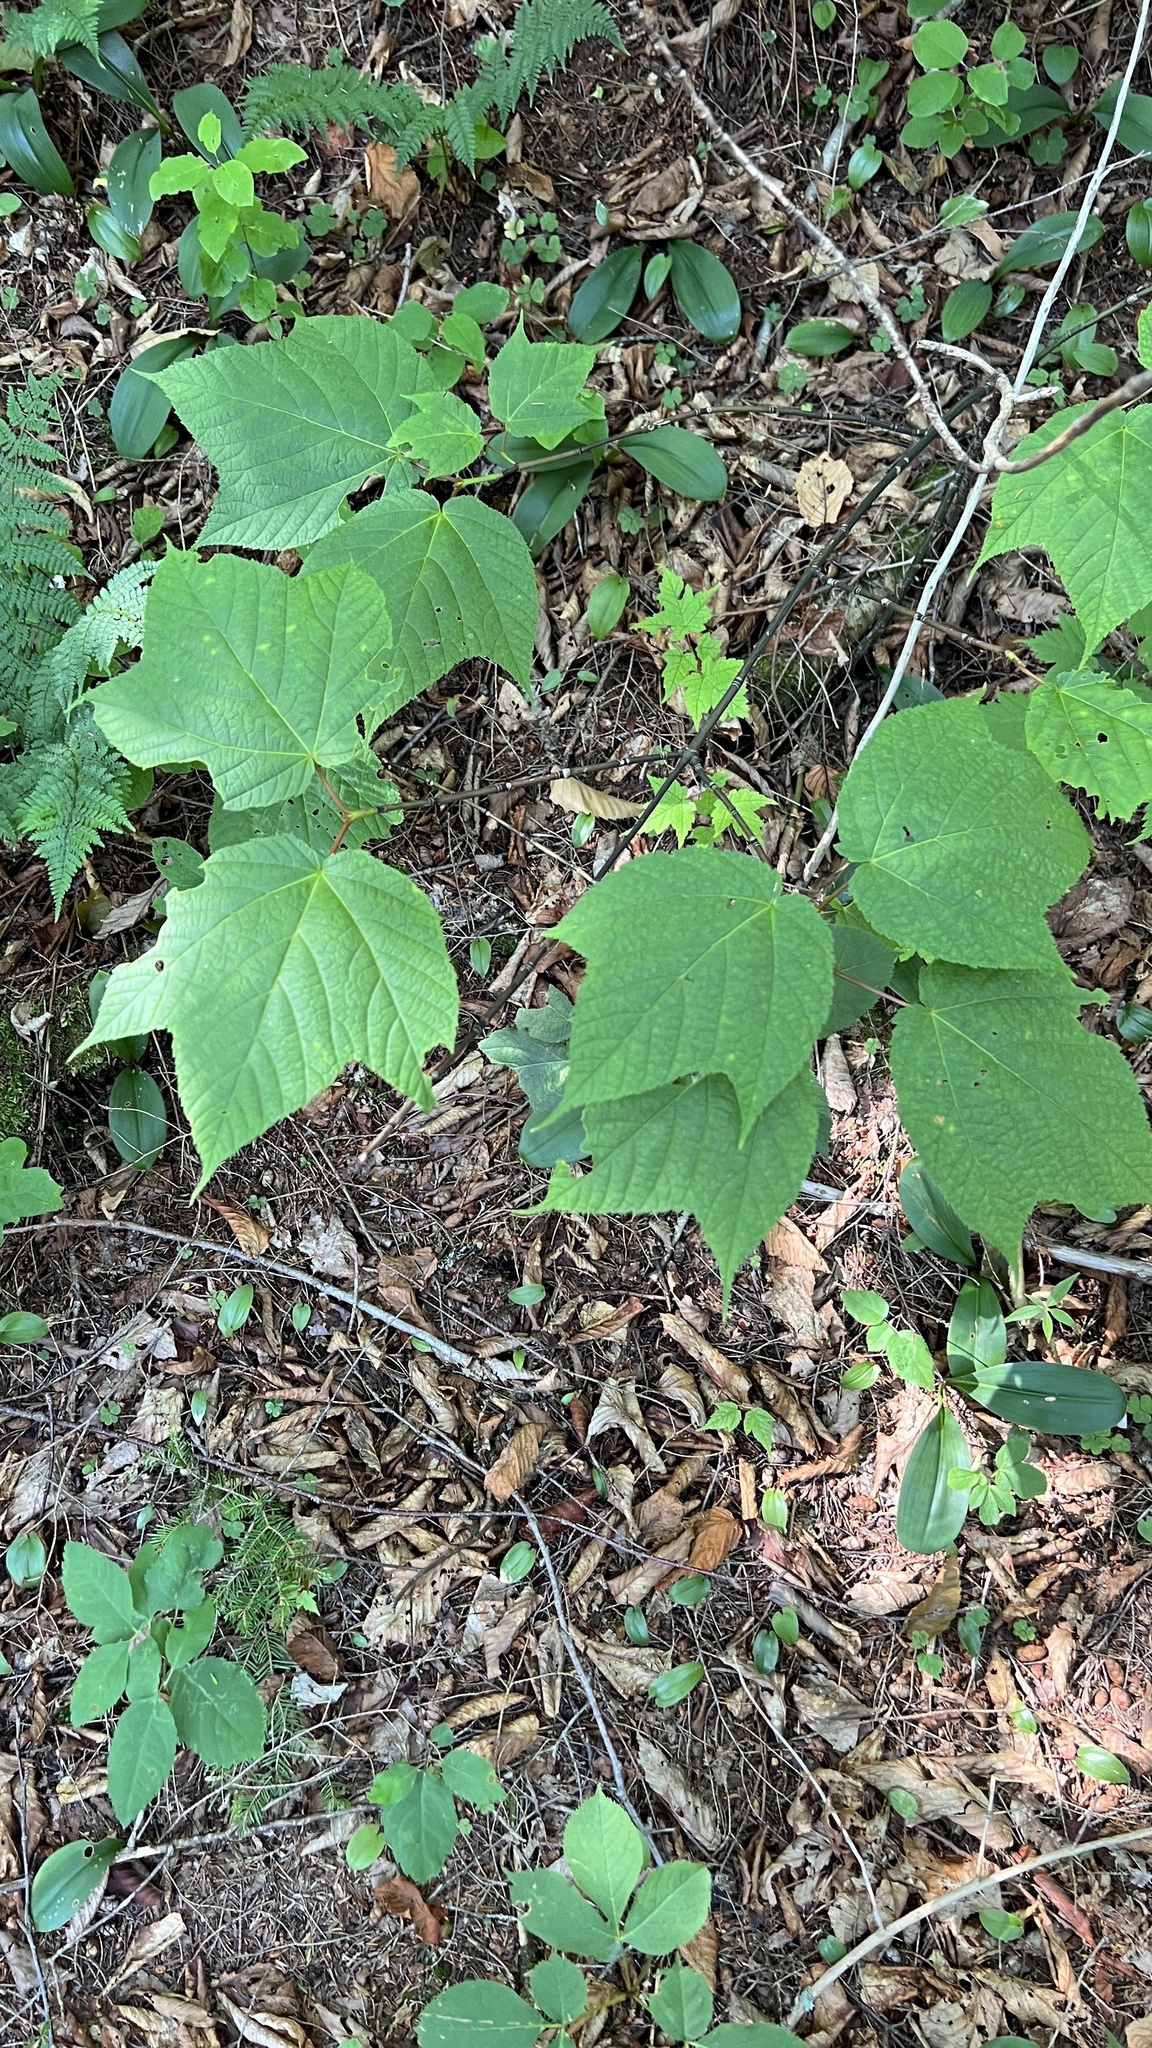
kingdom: Plantae
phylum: Tracheophyta
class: Magnoliopsida
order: Sapindales
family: Sapindaceae
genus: Acer
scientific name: Acer pensylvanicum
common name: Moosewood
